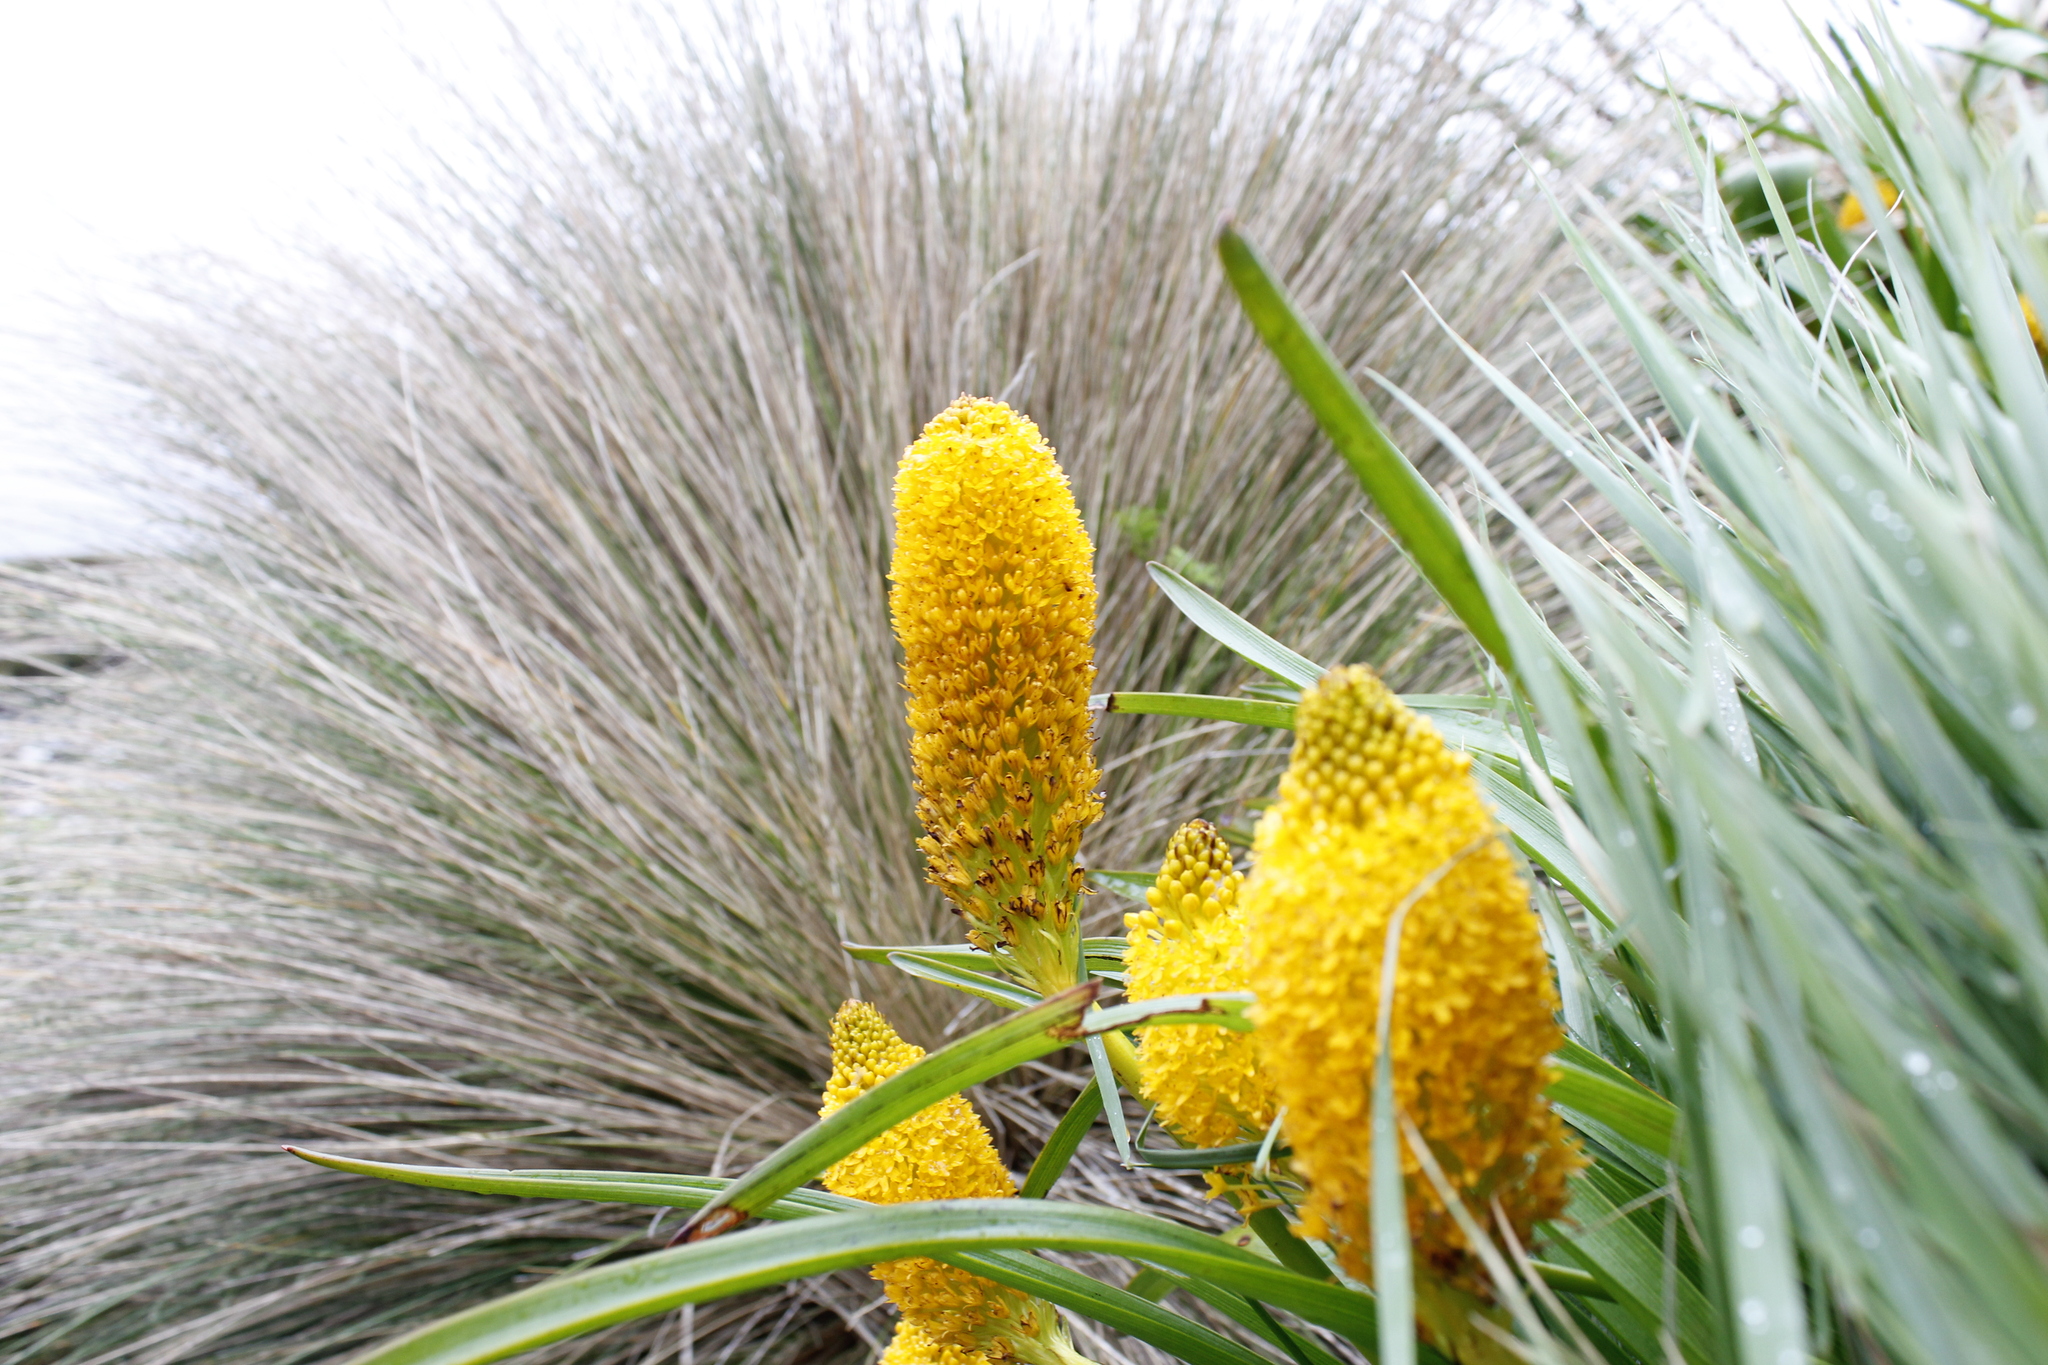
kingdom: Plantae
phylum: Tracheophyta
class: Liliopsida
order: Asparagales
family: Asphodelaceae
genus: Bulbinella
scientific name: Bulbinella rossii
